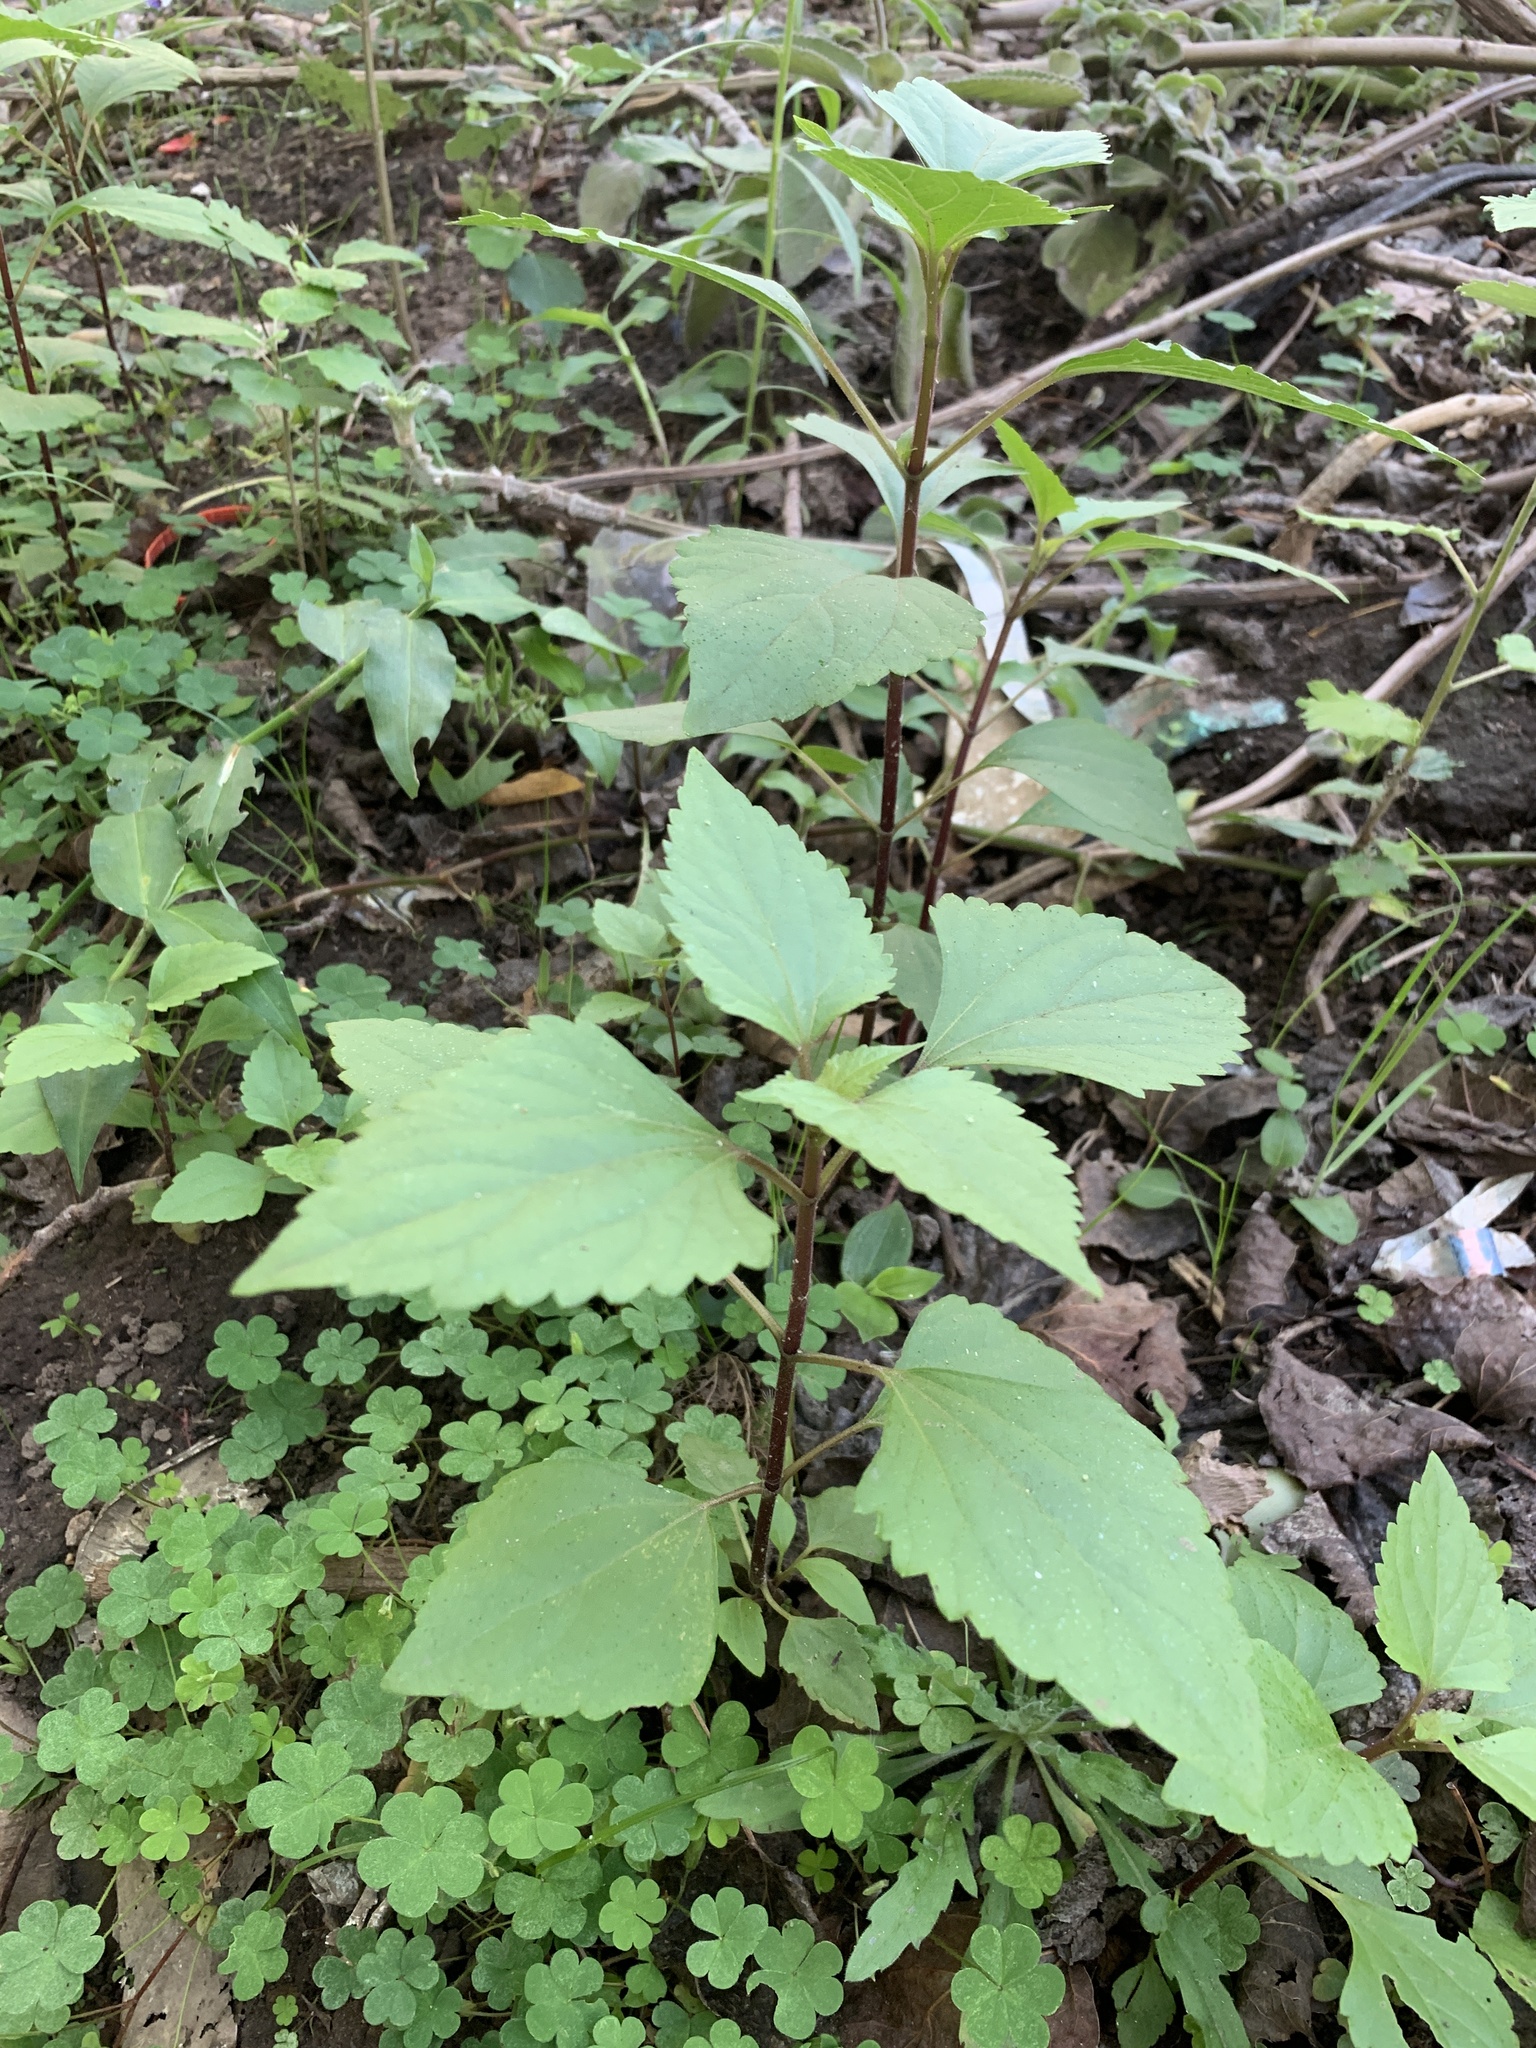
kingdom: Plantae
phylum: Tracheophyta
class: Magnoliopsida
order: Asterales
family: Asteraceae
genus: Ageratina
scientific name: Ageratina adenophora
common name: Sticky snakeroot
